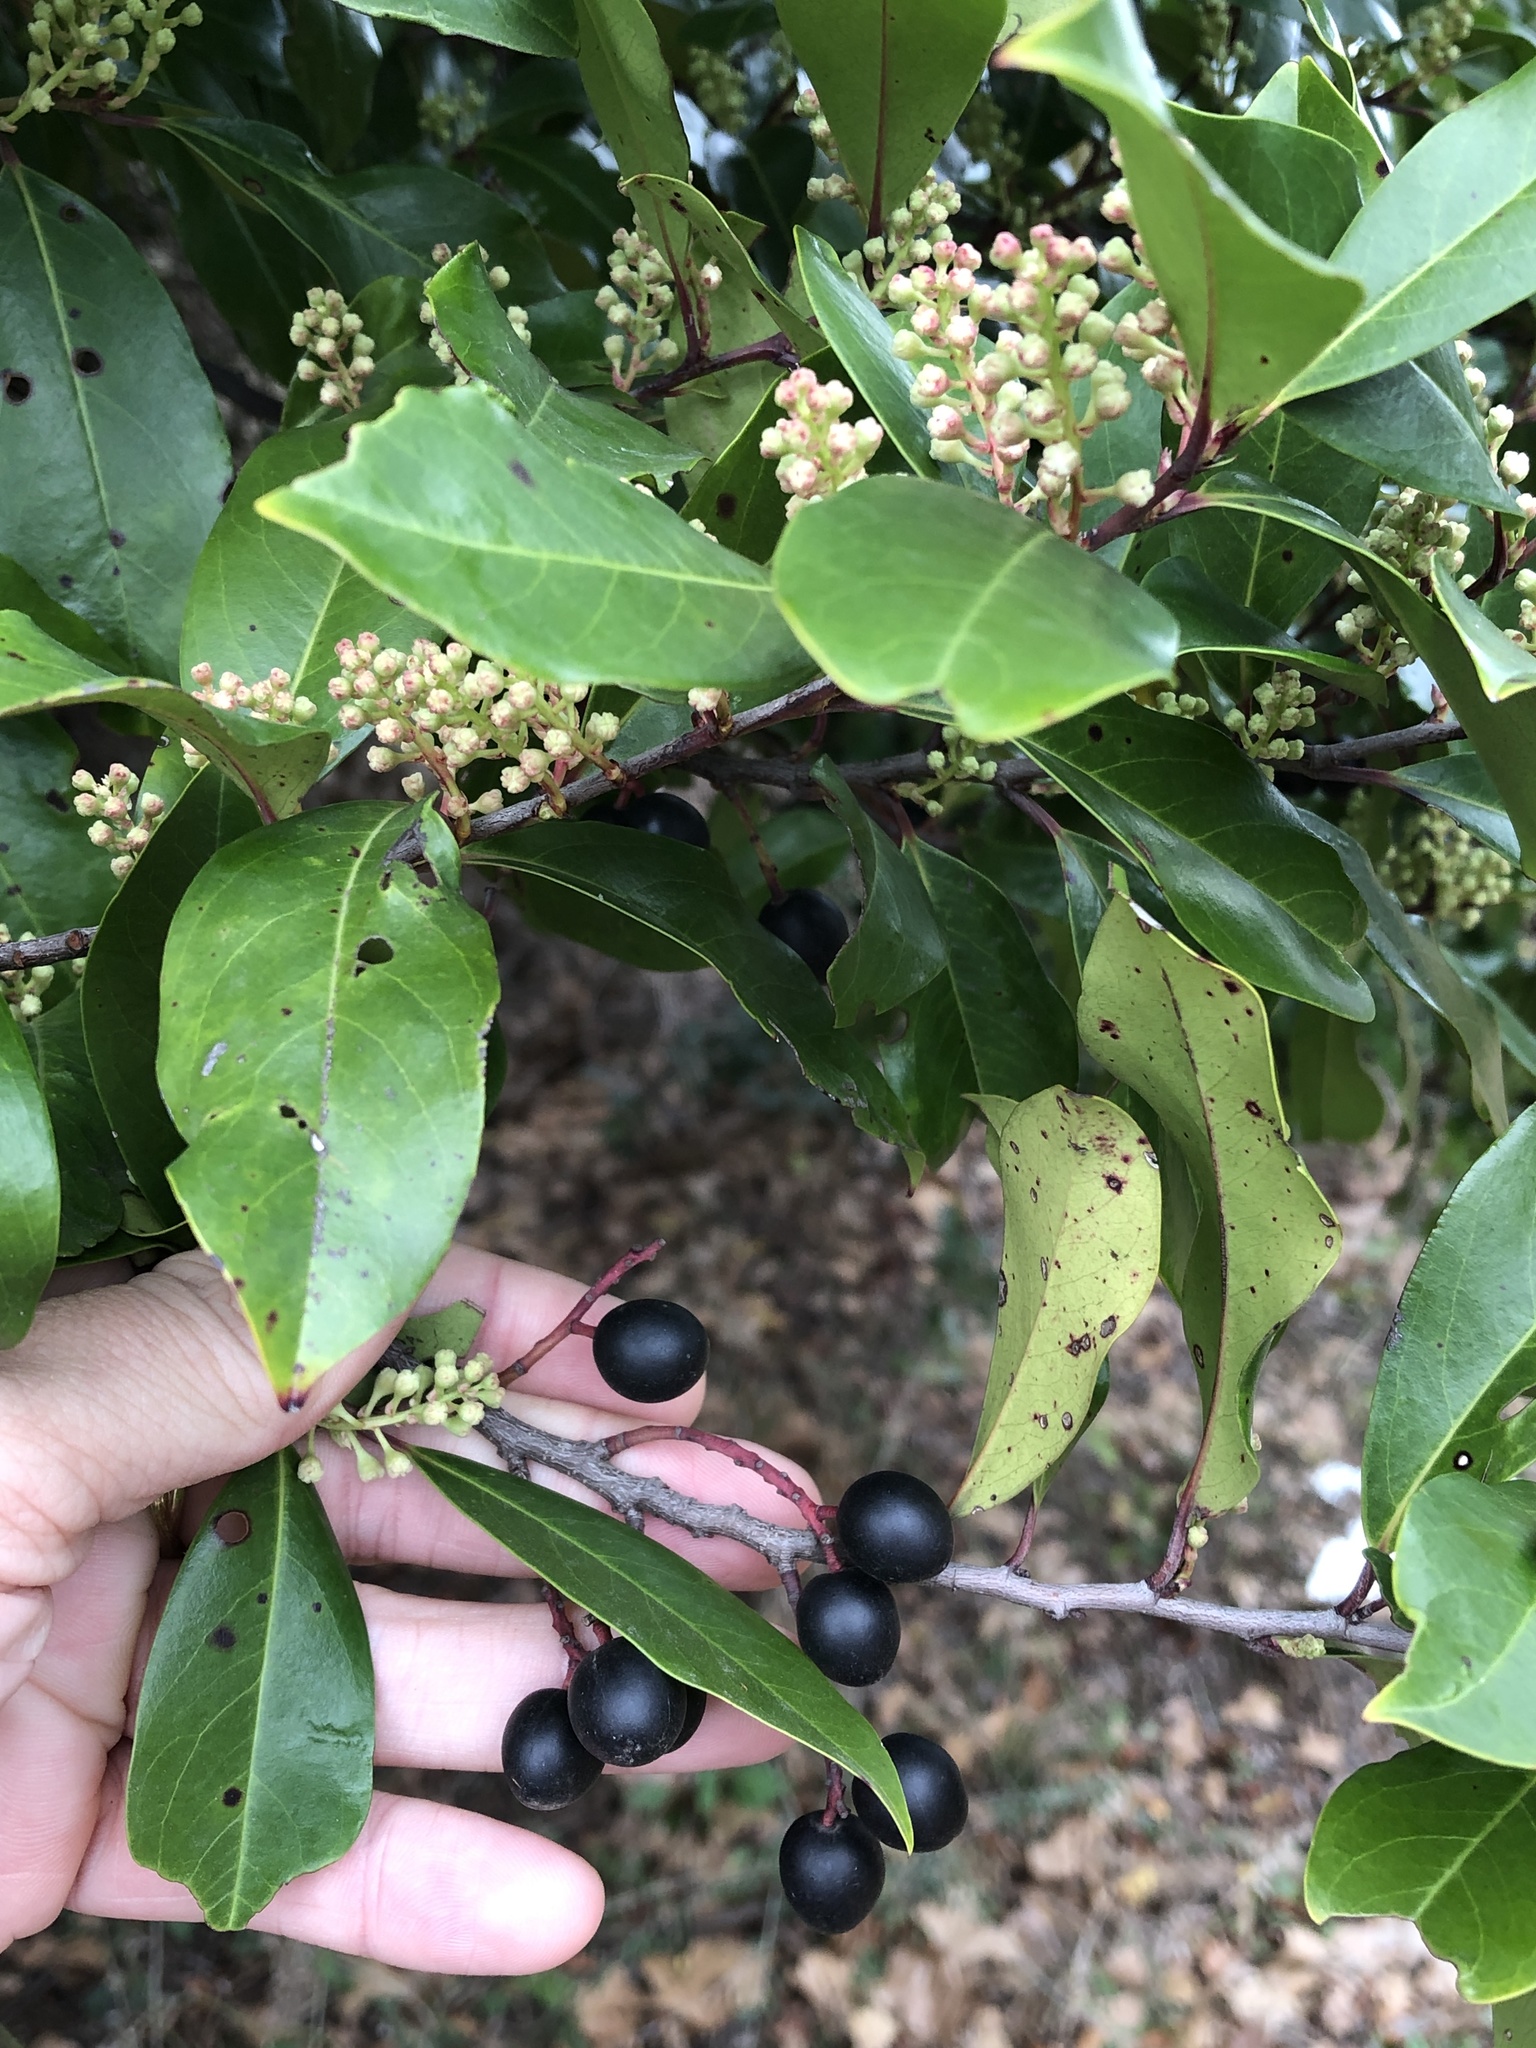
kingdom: Plantae
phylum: Tracheophyta
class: Magnoliopsida
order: Rosales
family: Rosaceae
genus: Prunus
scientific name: Prunus caroliniana
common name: Carolina laurel cherry
